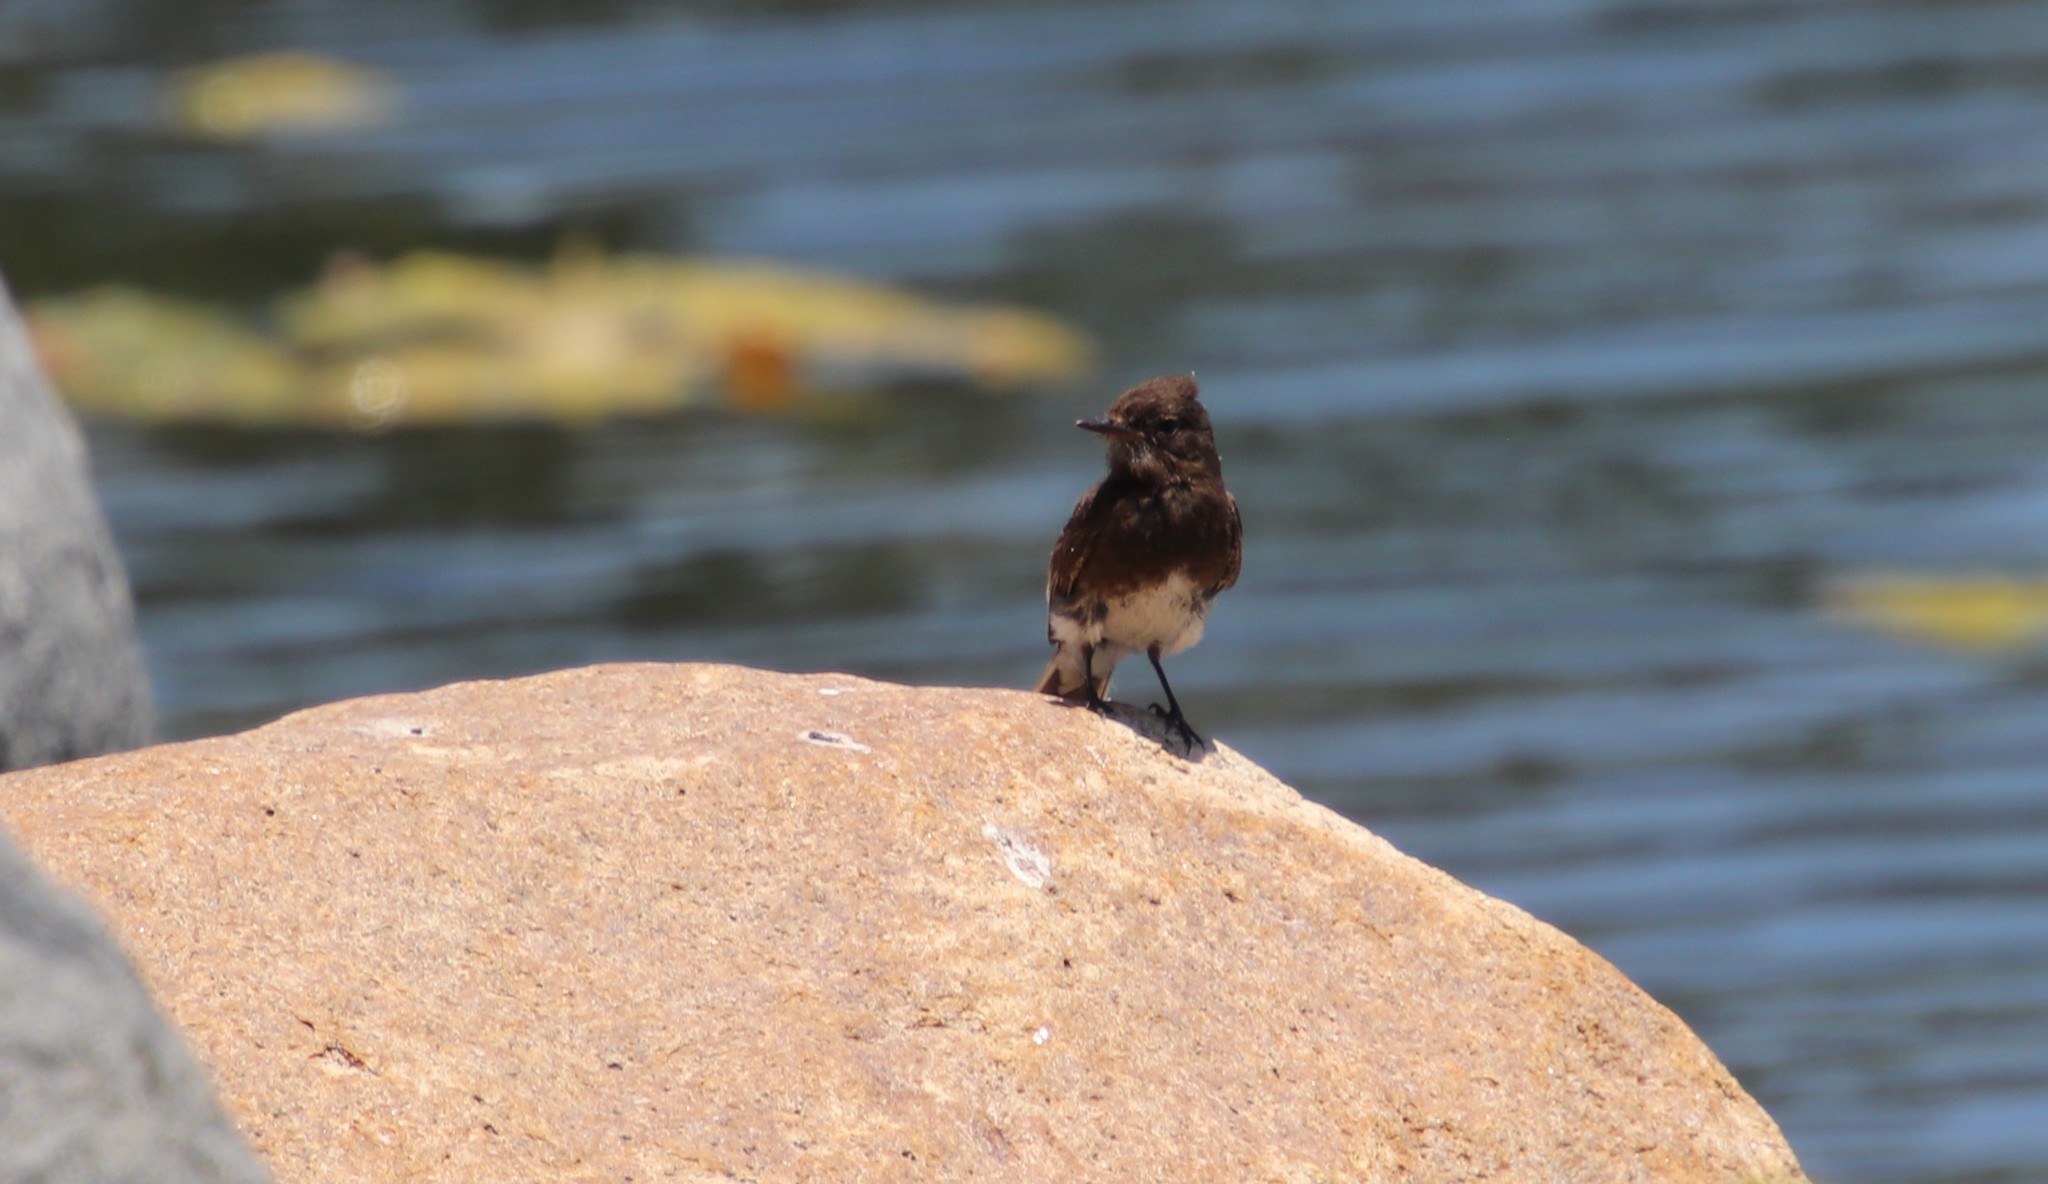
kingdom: Animalia
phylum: Chordata
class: Aves
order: Passeriformes
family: Tyrannidae
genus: Sayornis
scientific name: Sayornis nigricans
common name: Black phoebe
